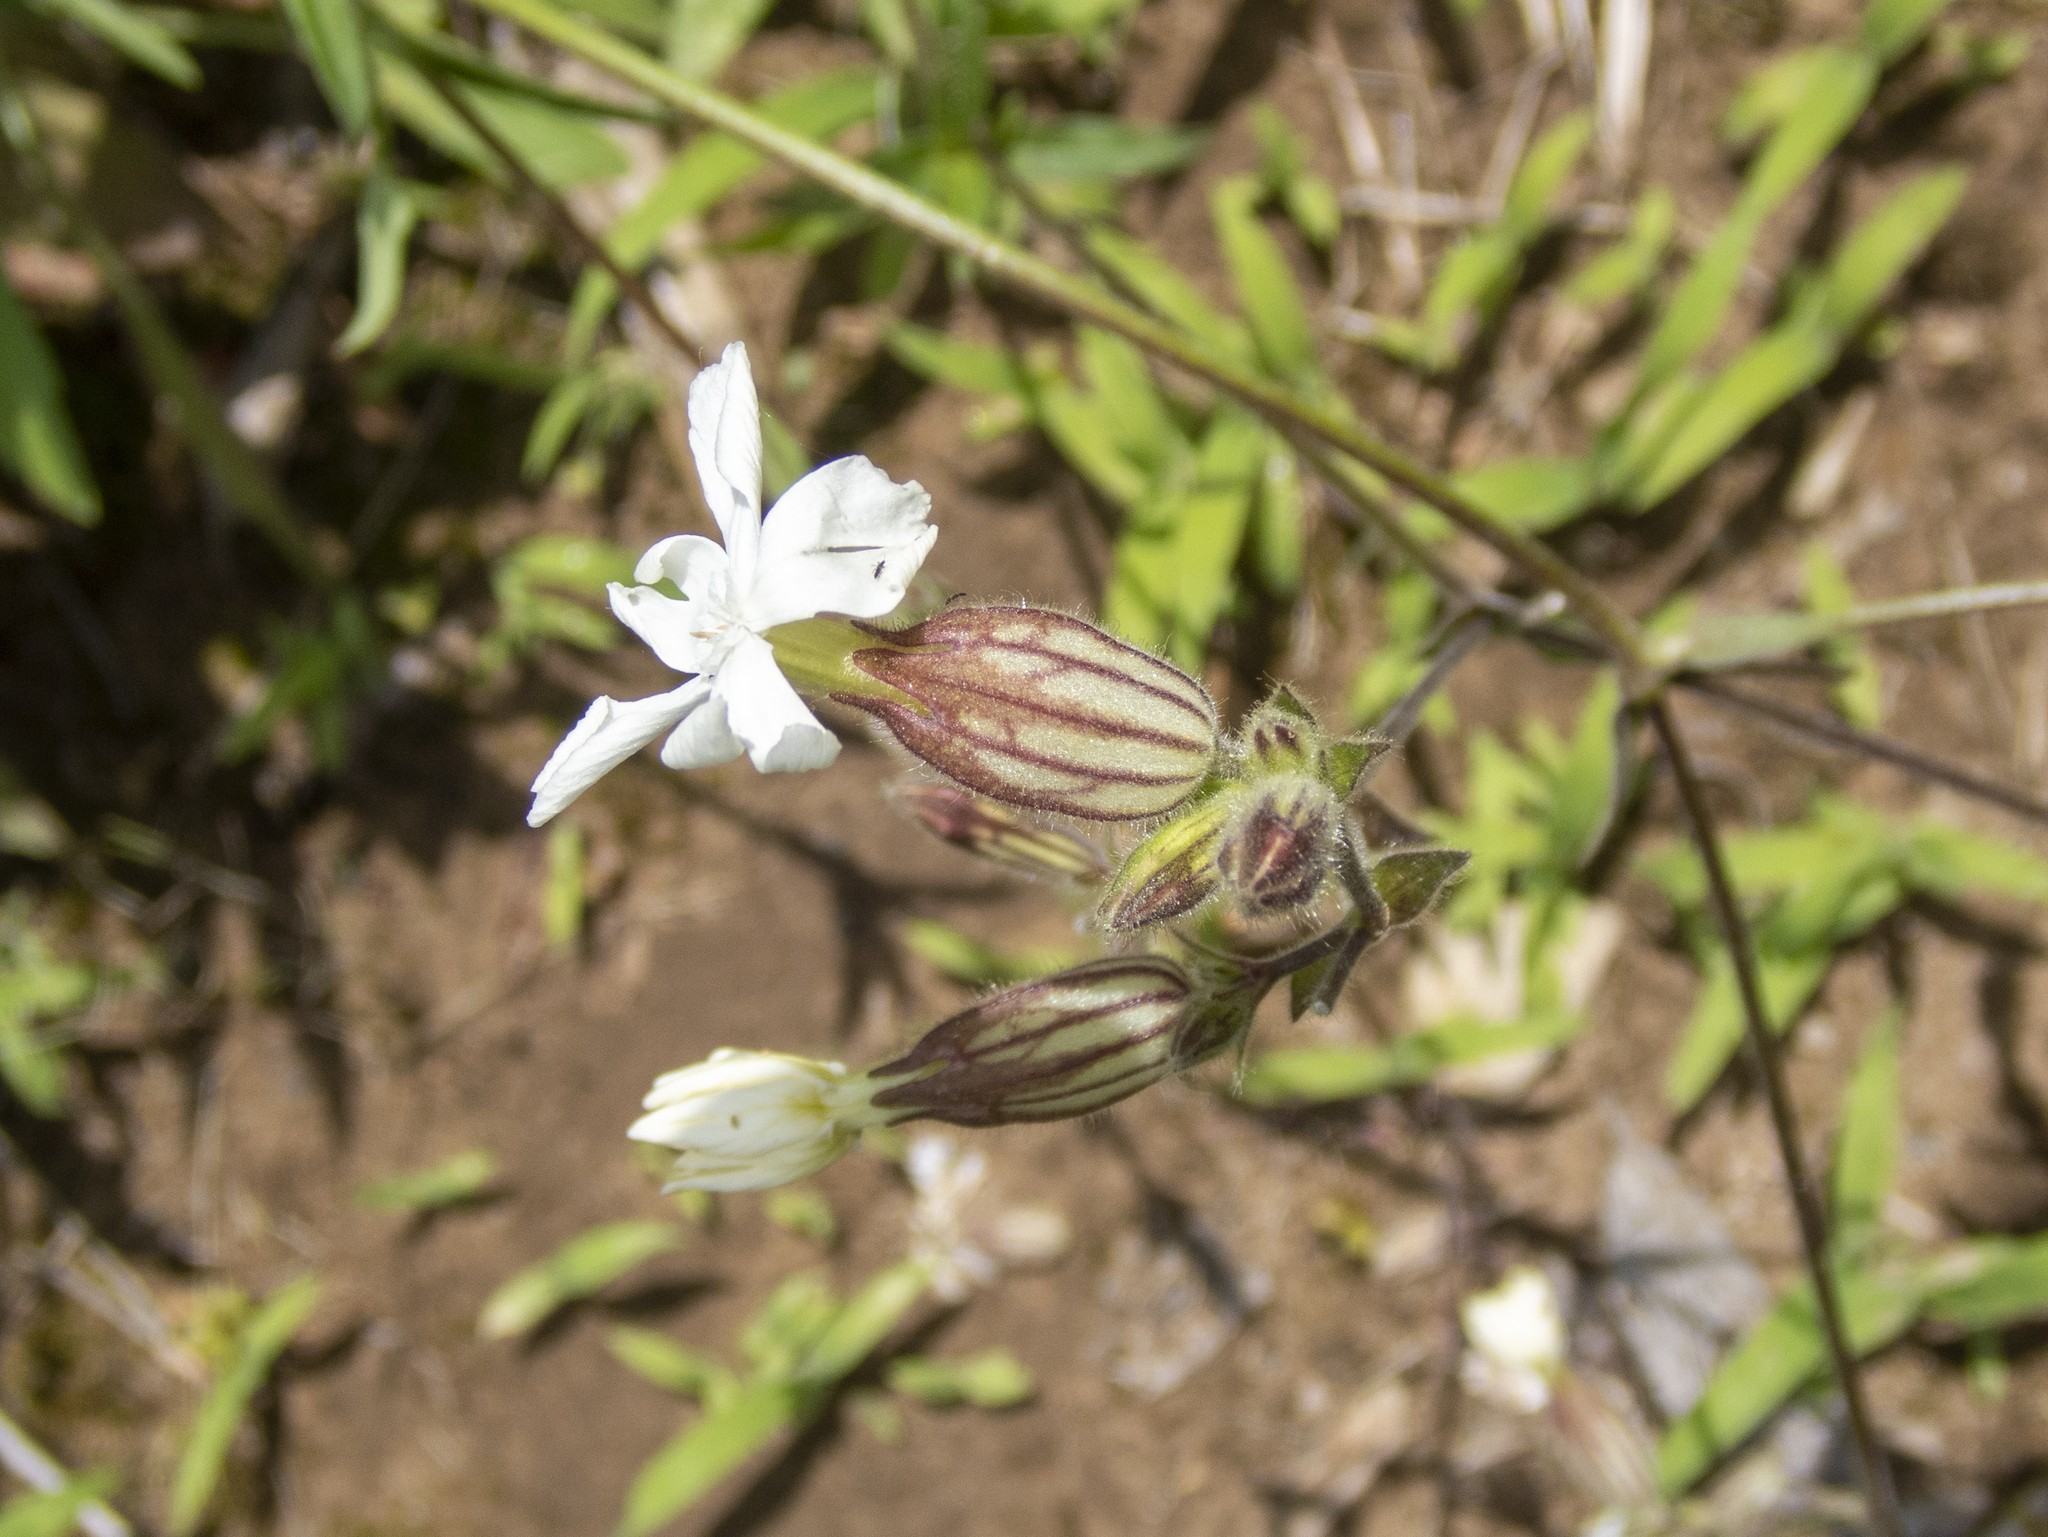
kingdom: Plantae
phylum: Tracheophyta
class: Magnoliopsida
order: Caryophyllales
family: Caryophyllaceae
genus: Silene
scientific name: Silene latifolia
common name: White campion
